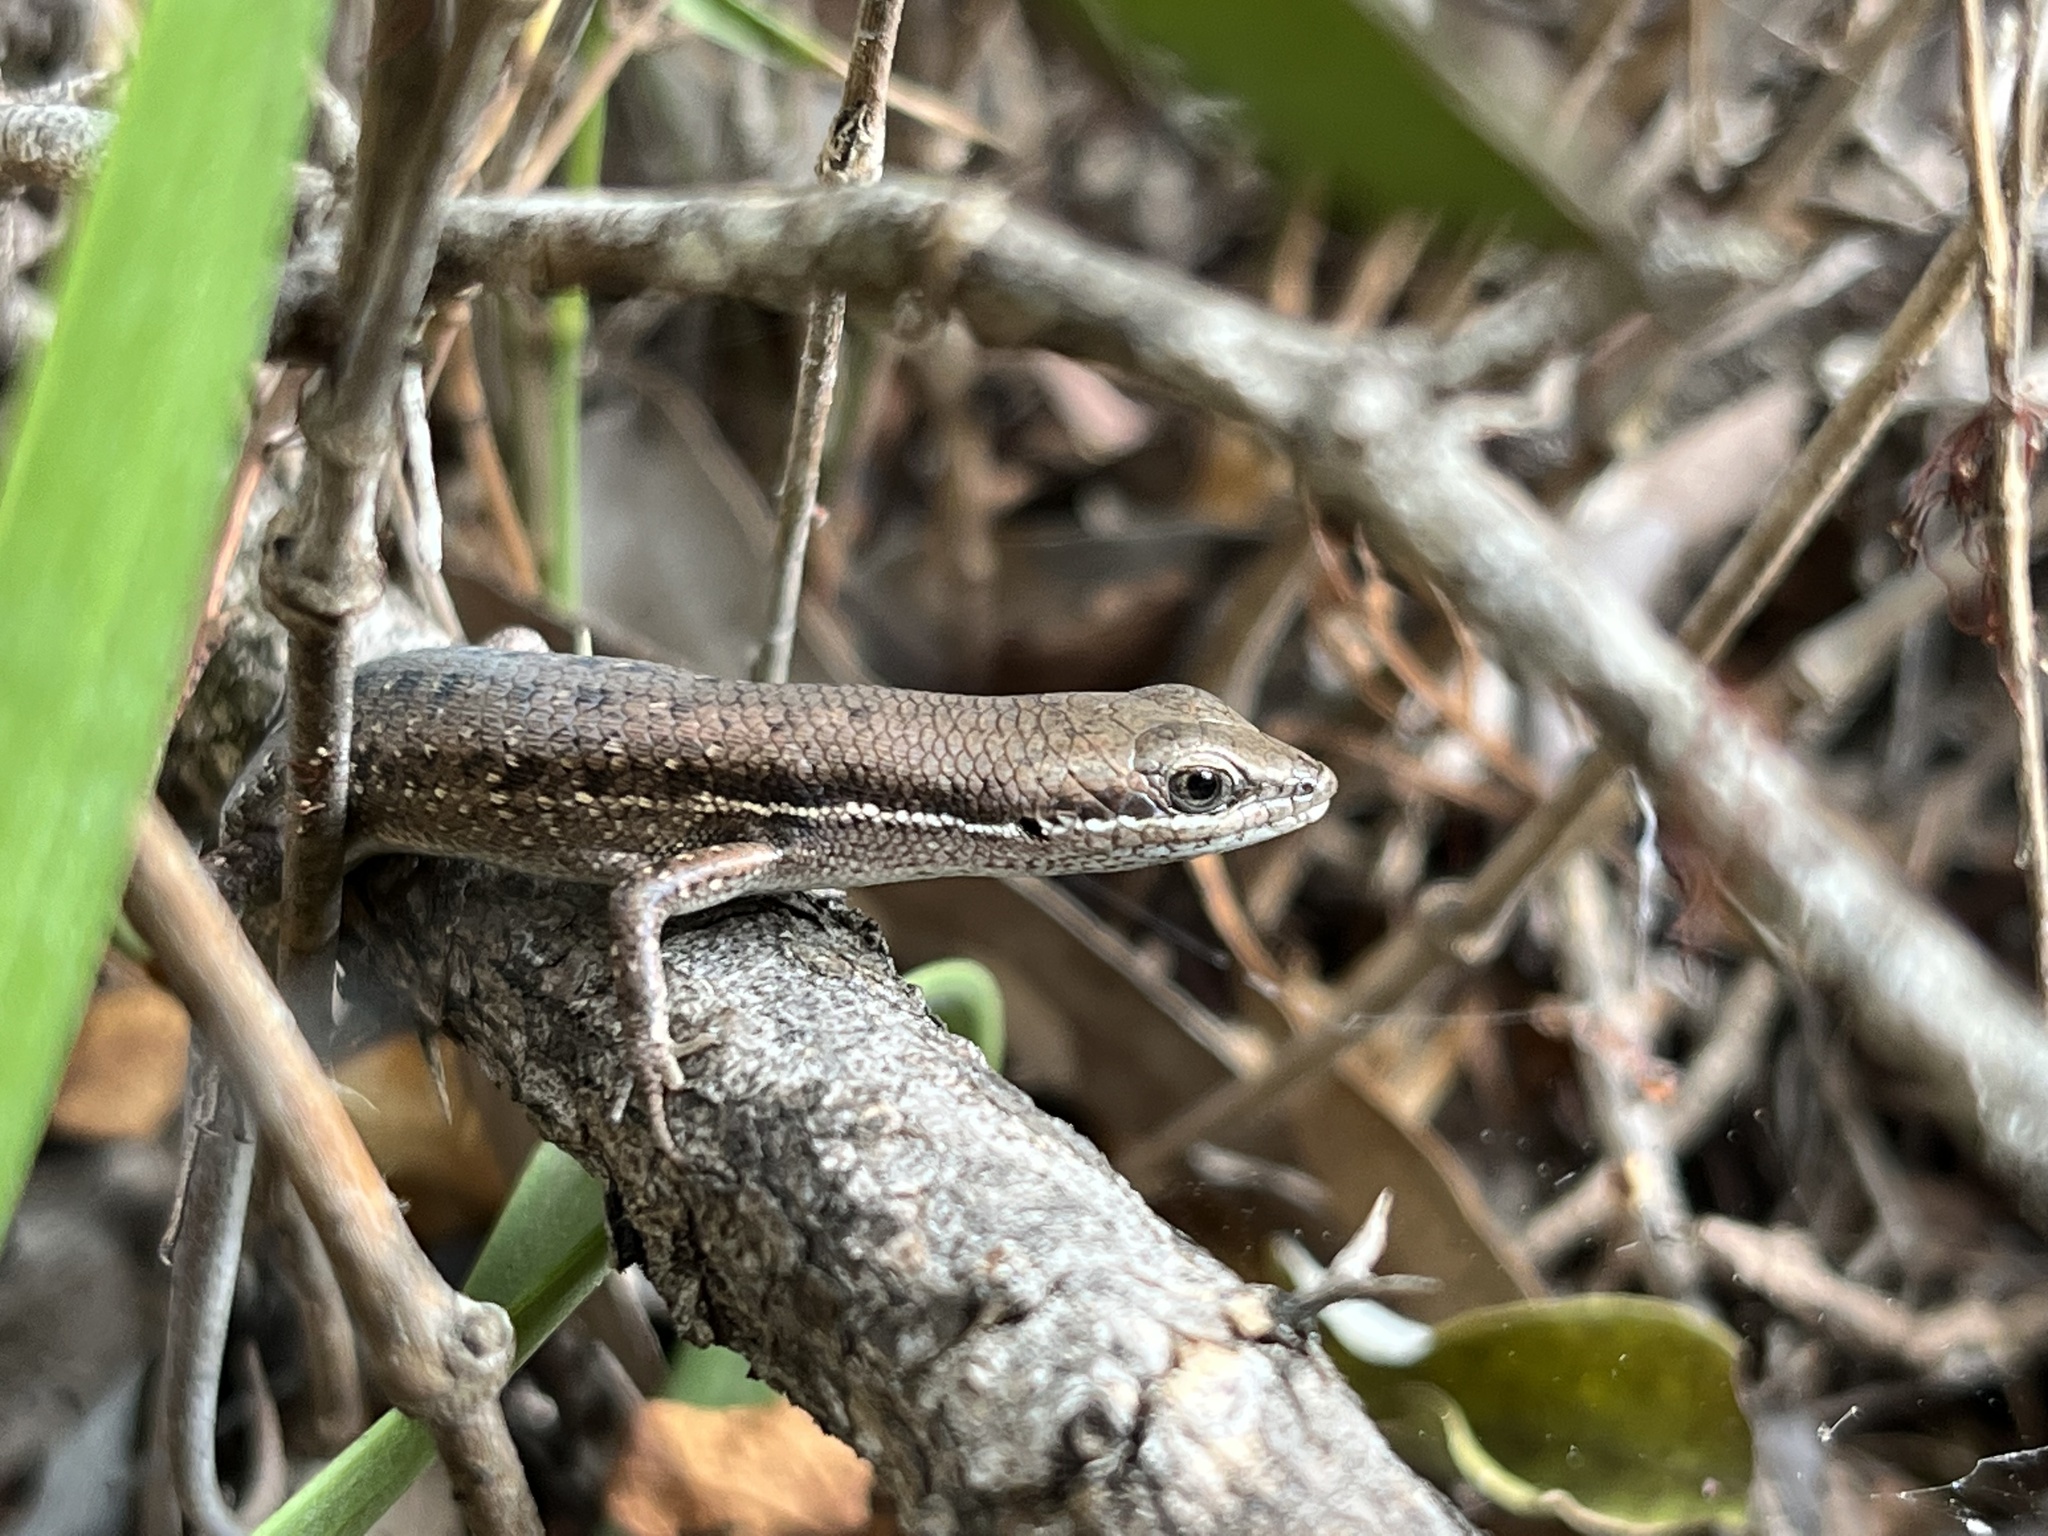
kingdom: Animalia
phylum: Chordata
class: Squamata
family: Scincidae
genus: Carlia
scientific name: Carlia pectoralis
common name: Open-litter rainbow-skink
